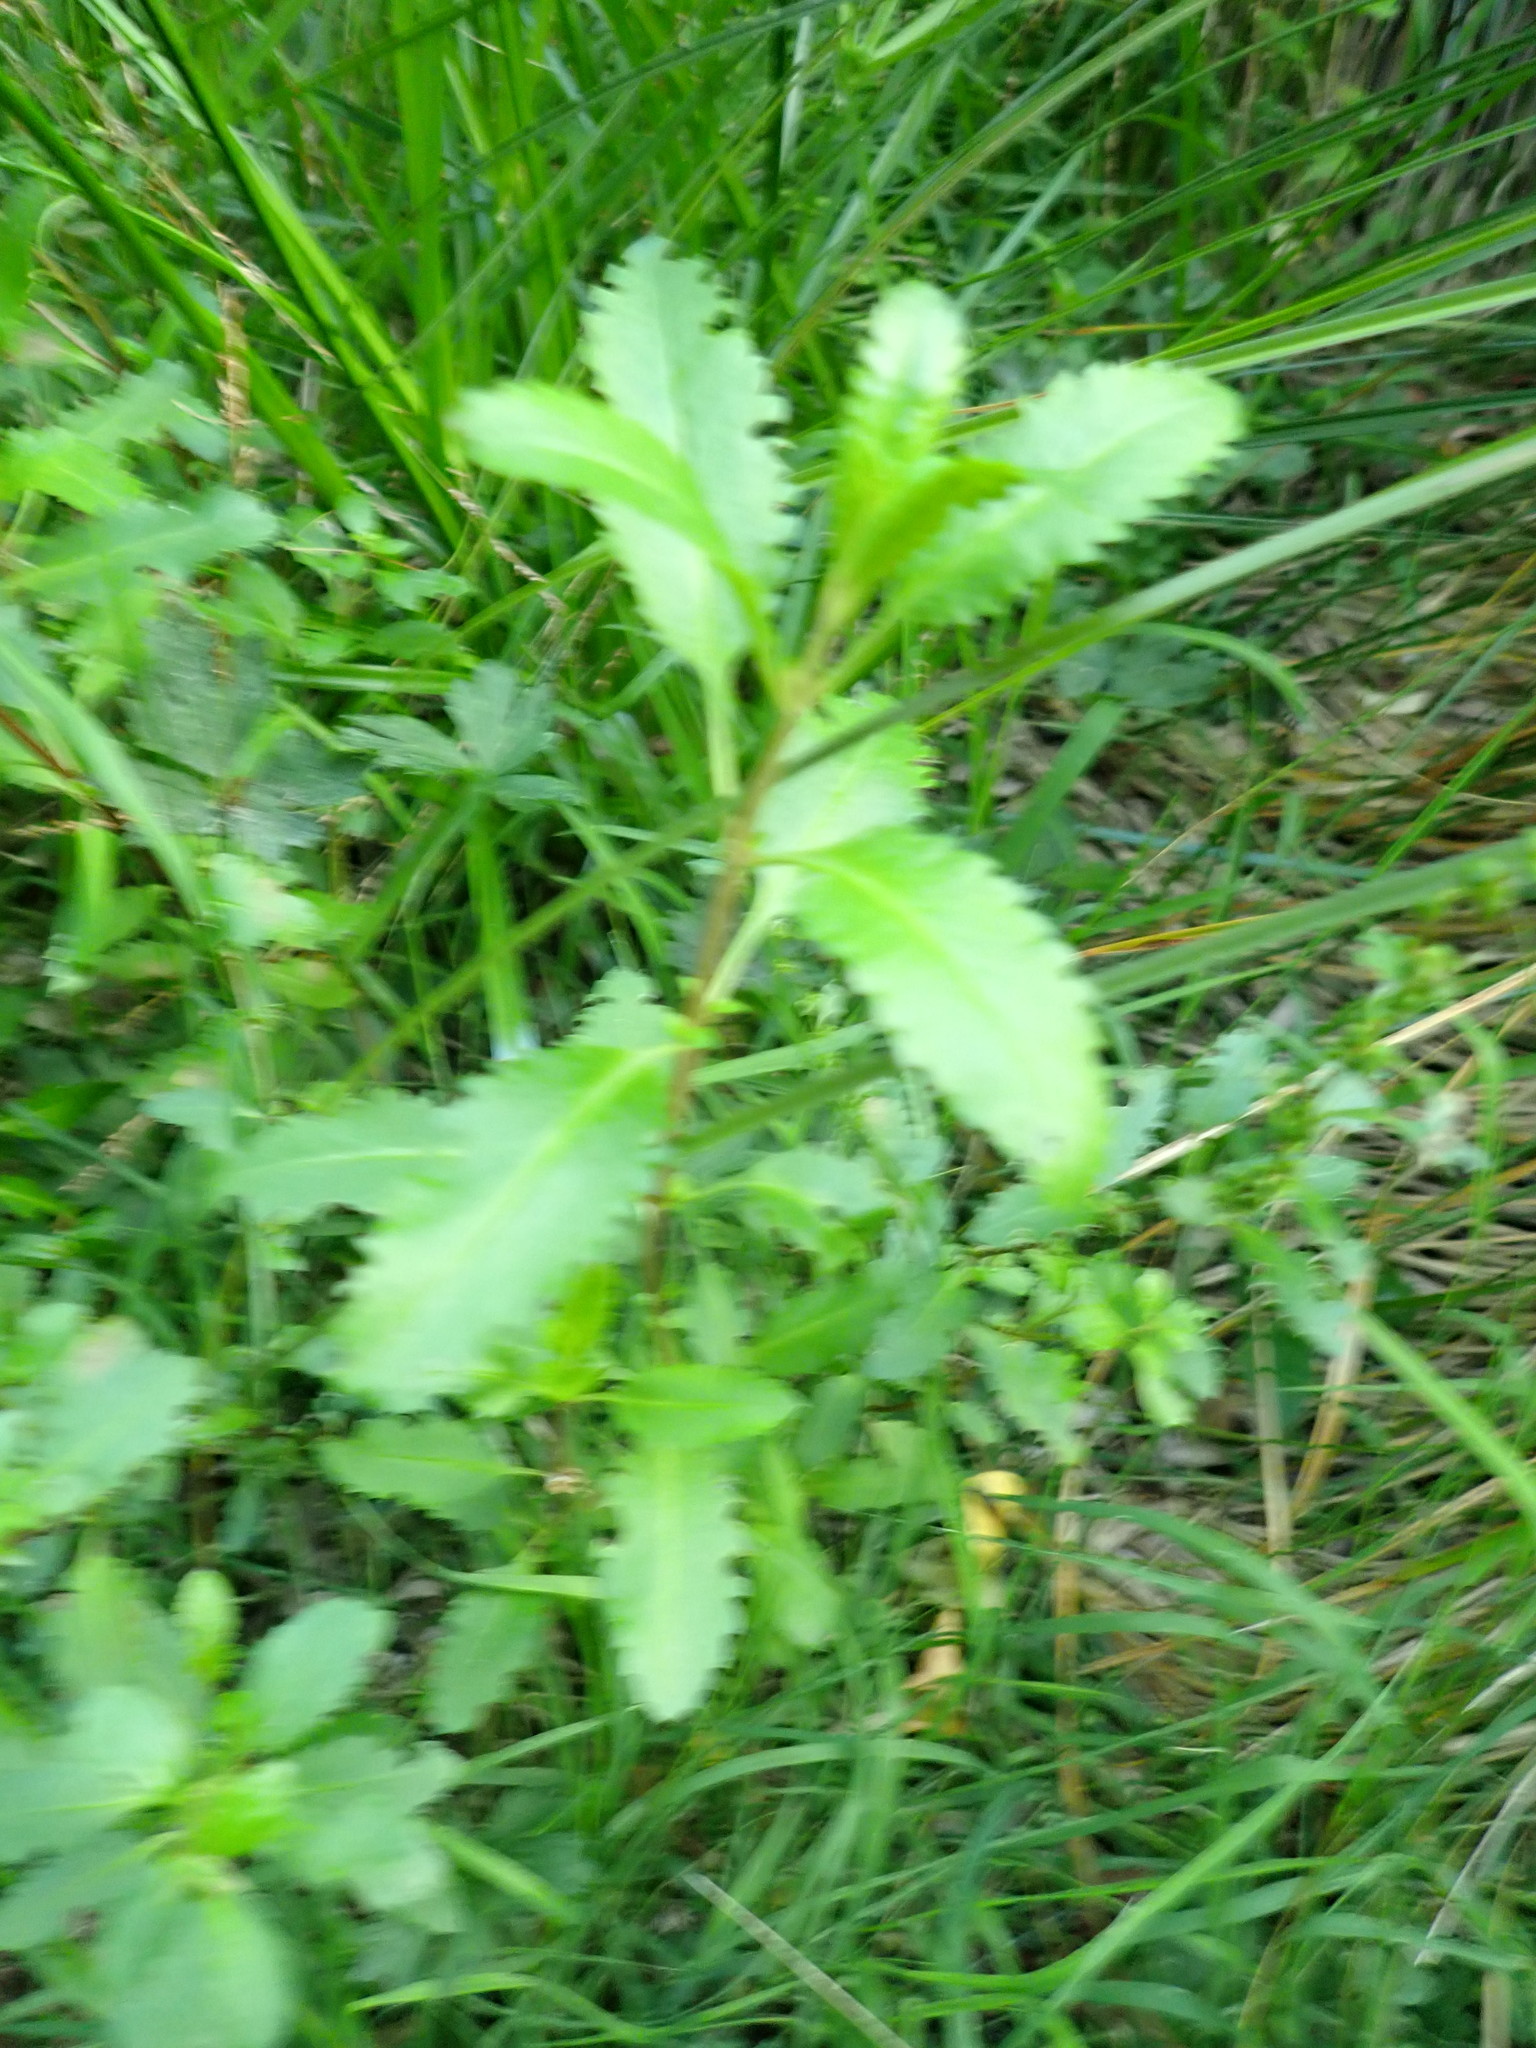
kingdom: Plantae
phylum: Tracheophyta
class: Magnoliopsida
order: Saxifragales
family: Haloragaceae
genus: Haloragis
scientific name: Haloragis erecta
